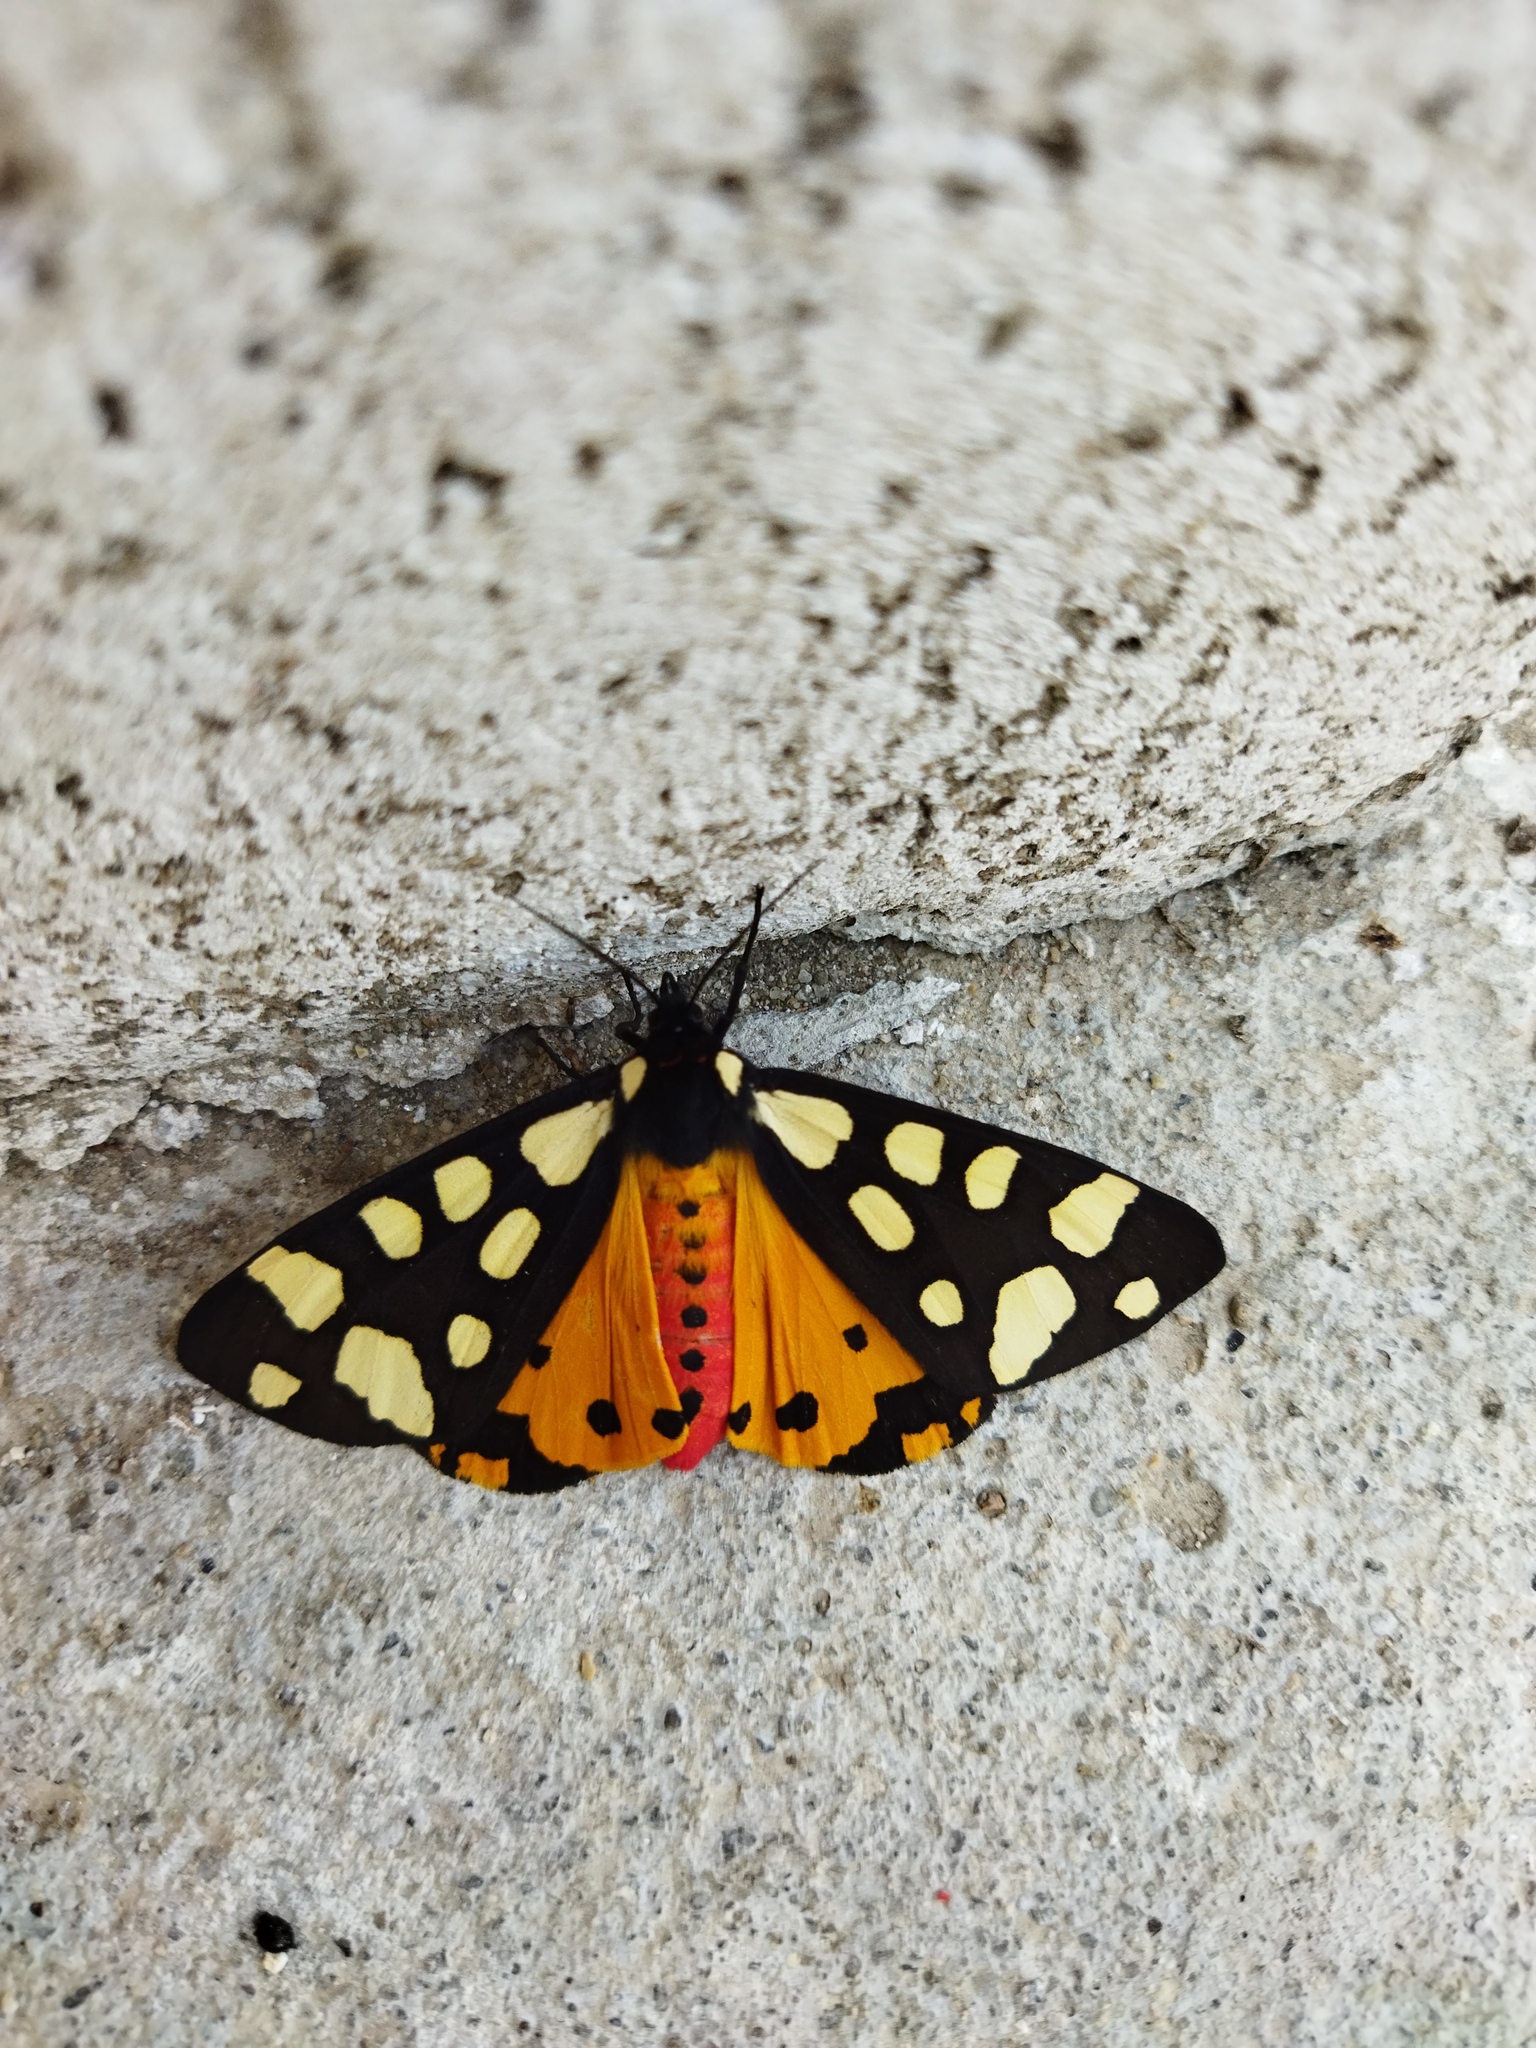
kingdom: Animalia
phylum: Arthropoda
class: Insecta
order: Lepidoptera
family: Erebidae
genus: Epicallia
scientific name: Epicallia villica
